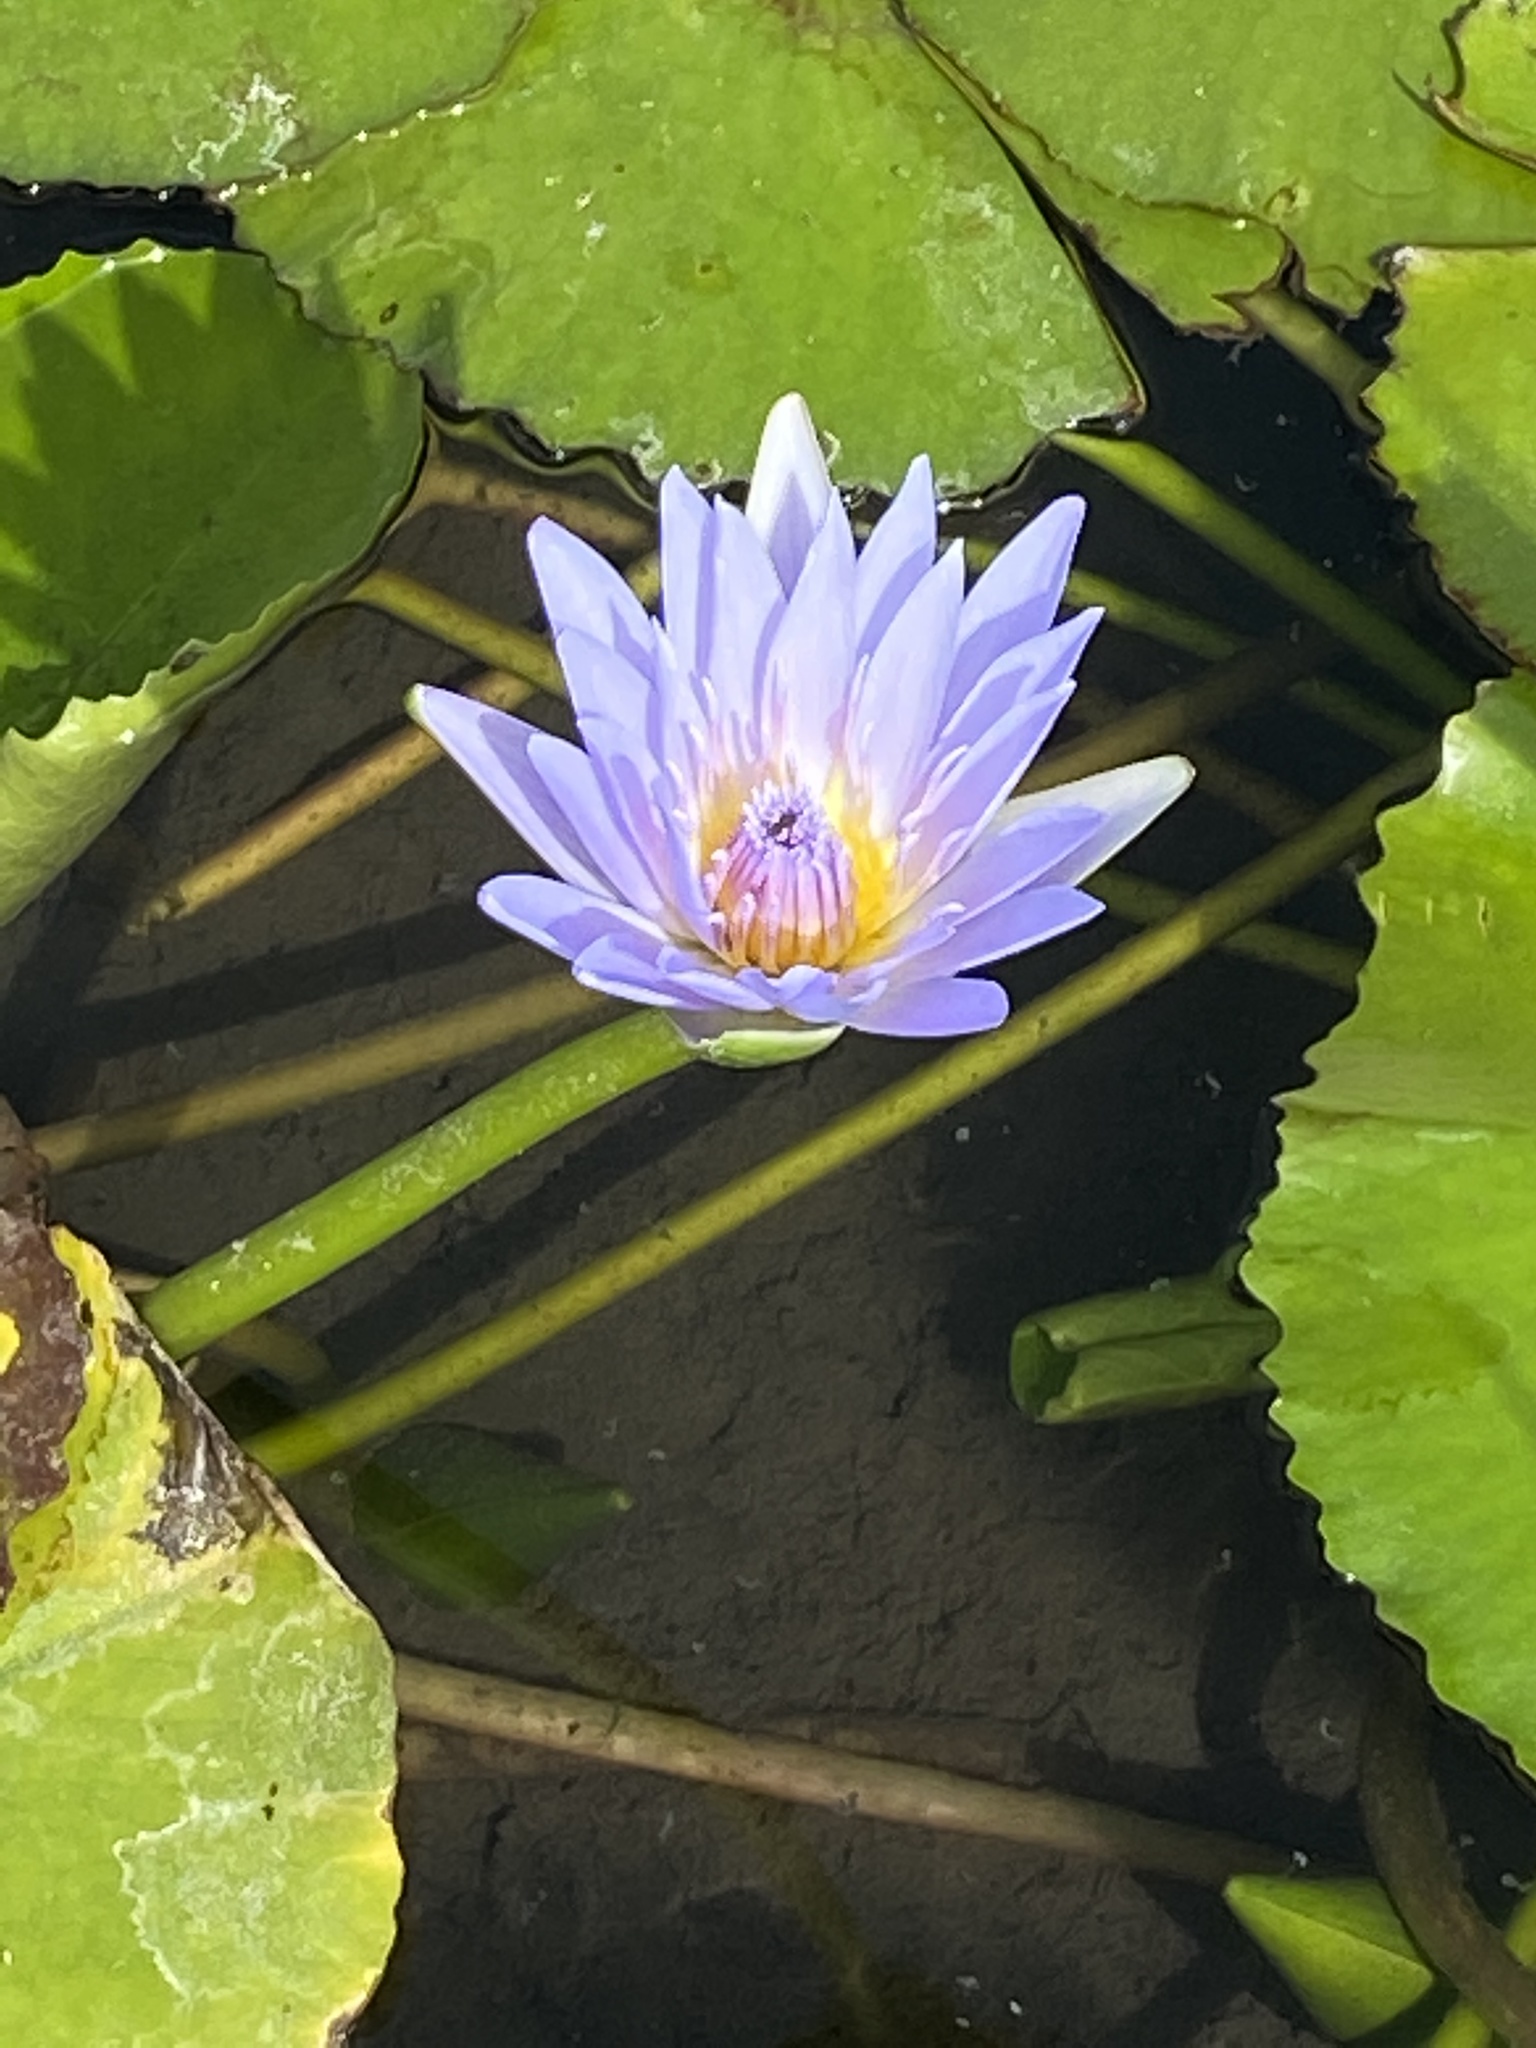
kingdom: Plantae
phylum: Tracheophyta
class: Magnoliopsida
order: Nymphaeales
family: Nymphaeaceae
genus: Nymphaea
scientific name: Nymphaea nouchali
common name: Blue lotus
